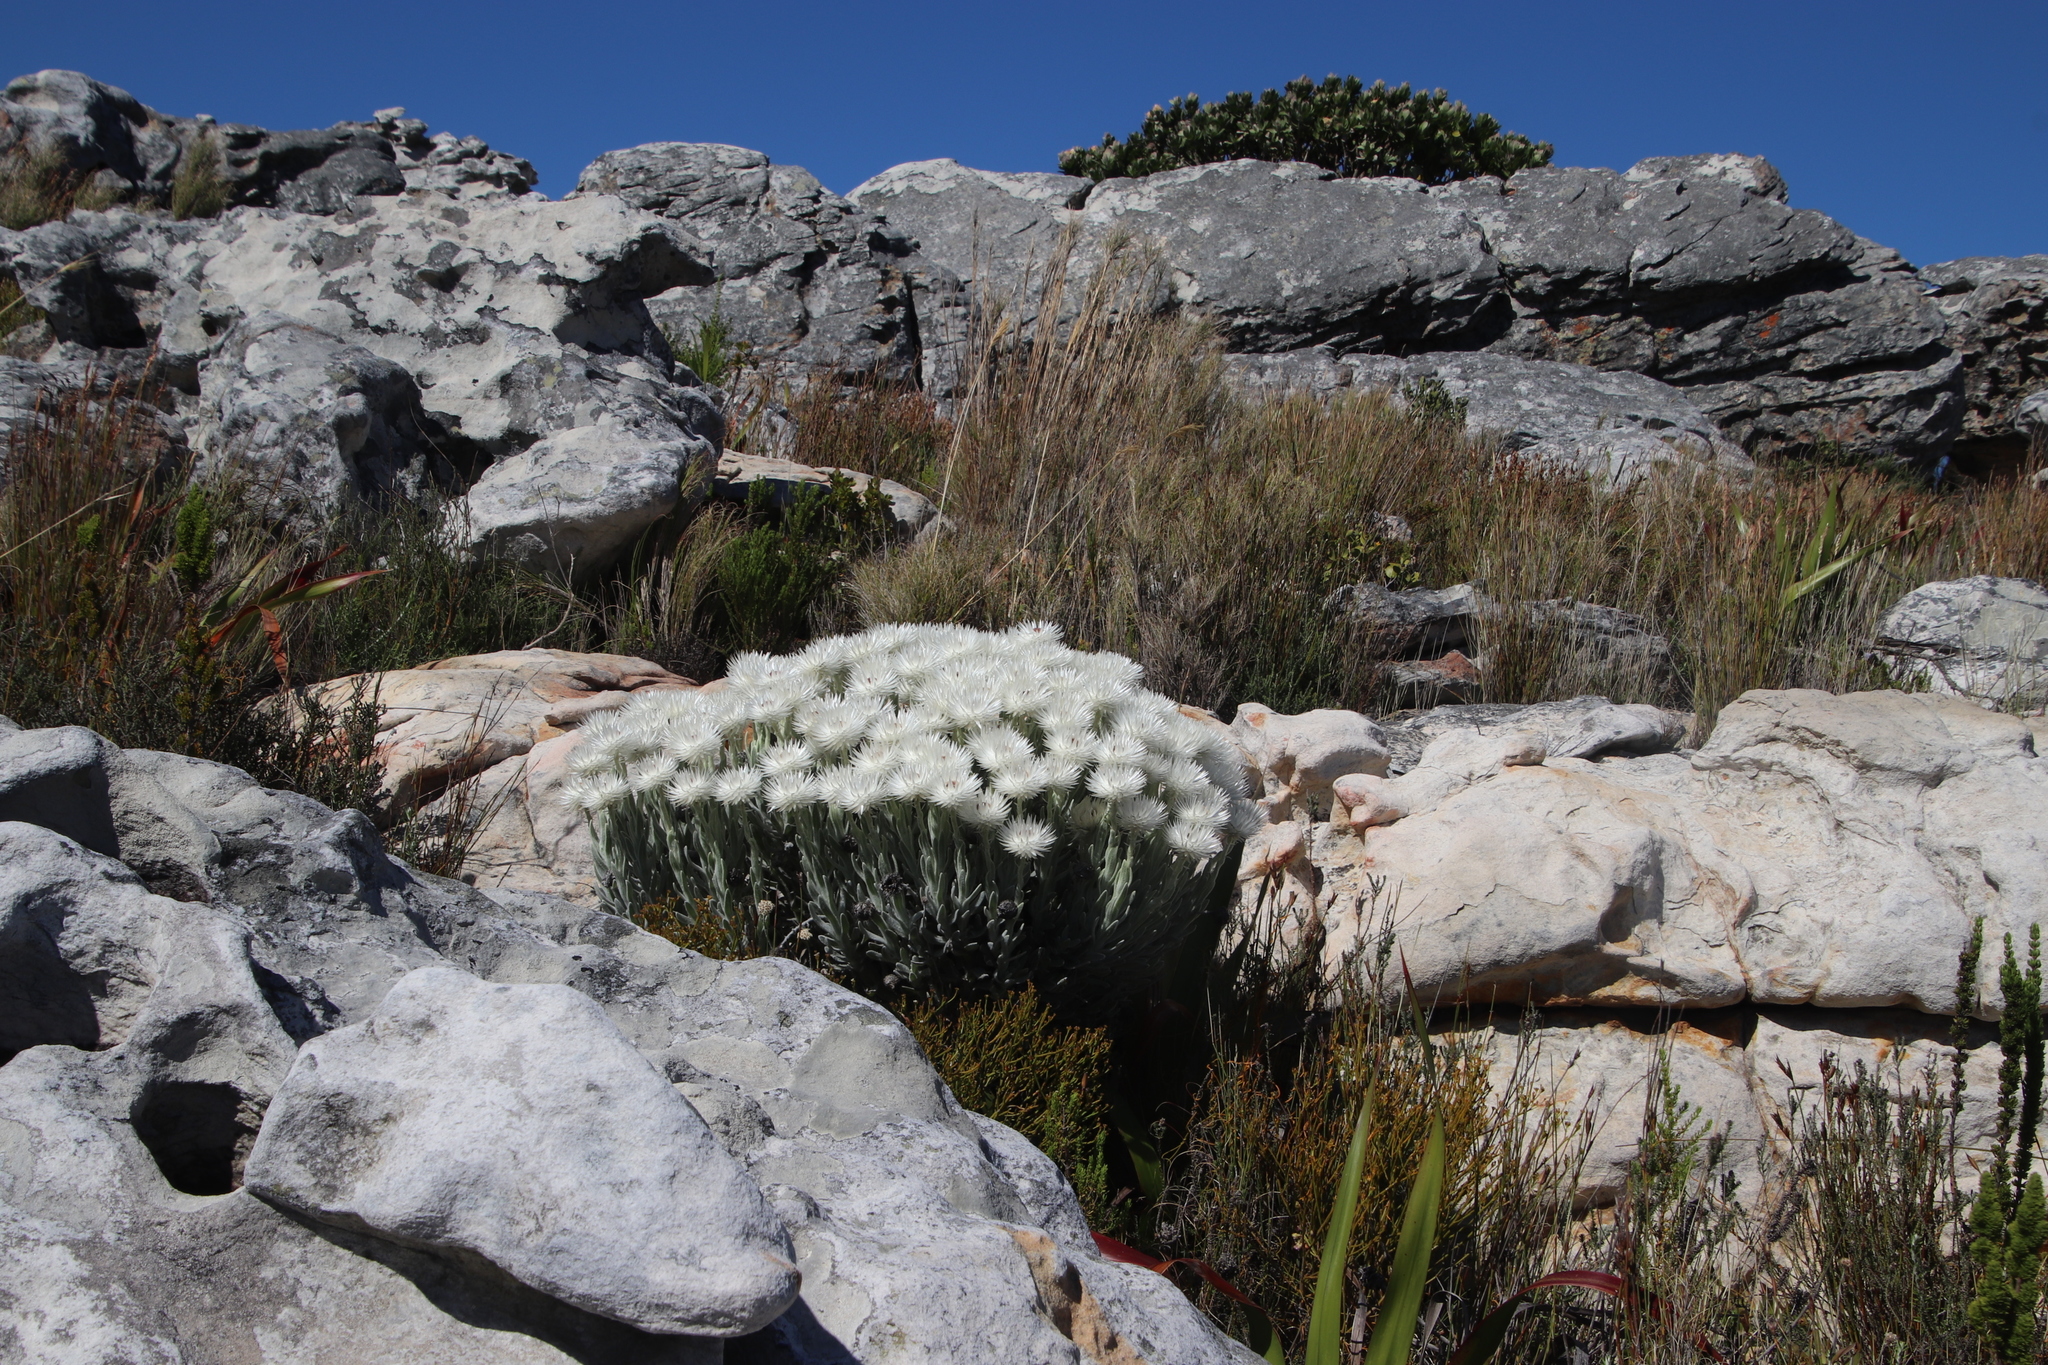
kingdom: Plantae
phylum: Tracheophyta
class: Magnoliopsida
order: Asterales
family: Asteraceae
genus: Syncarpha
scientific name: Syncarpha vestita
